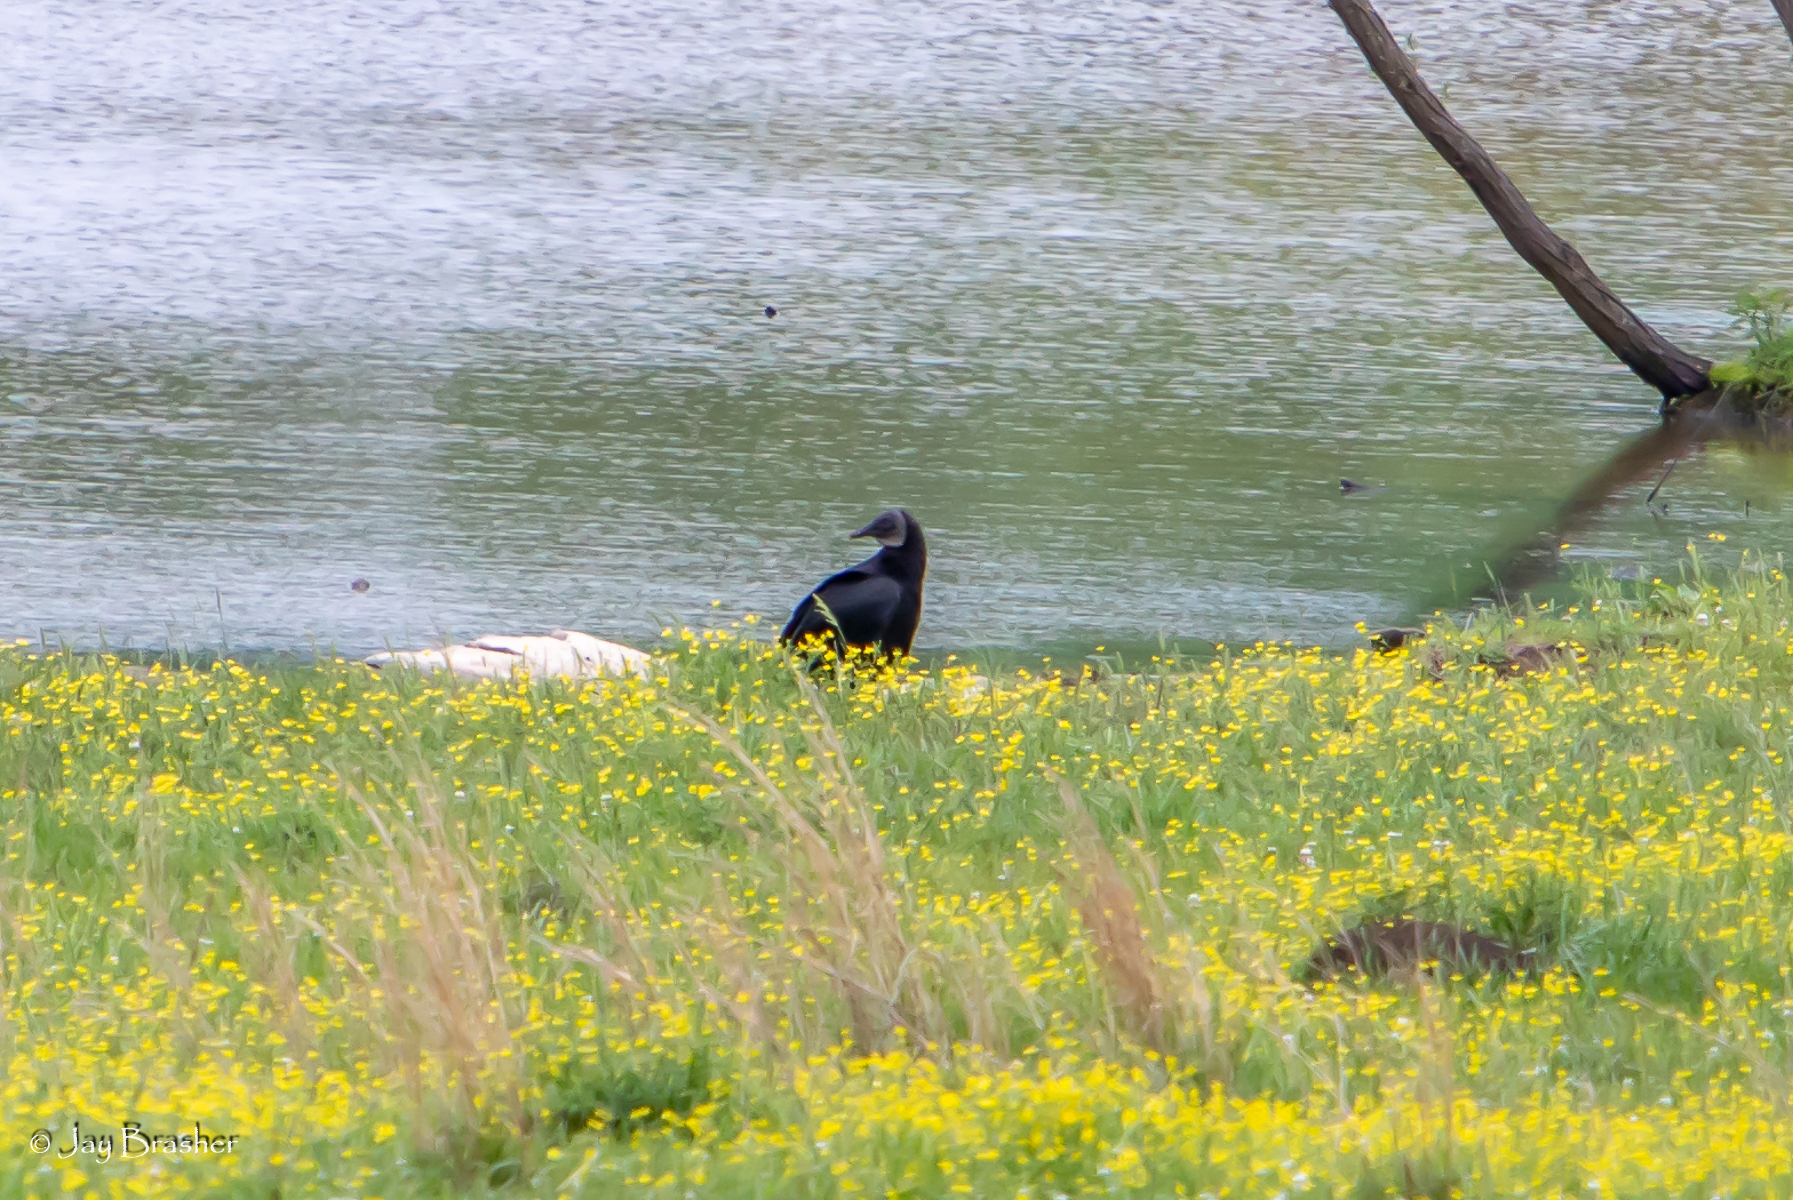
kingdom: Animalia
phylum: Chordata
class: Aves
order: Accipitriformes
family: Cathartidae
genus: Coragyps
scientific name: Coragyps atratus
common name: Black vulture
